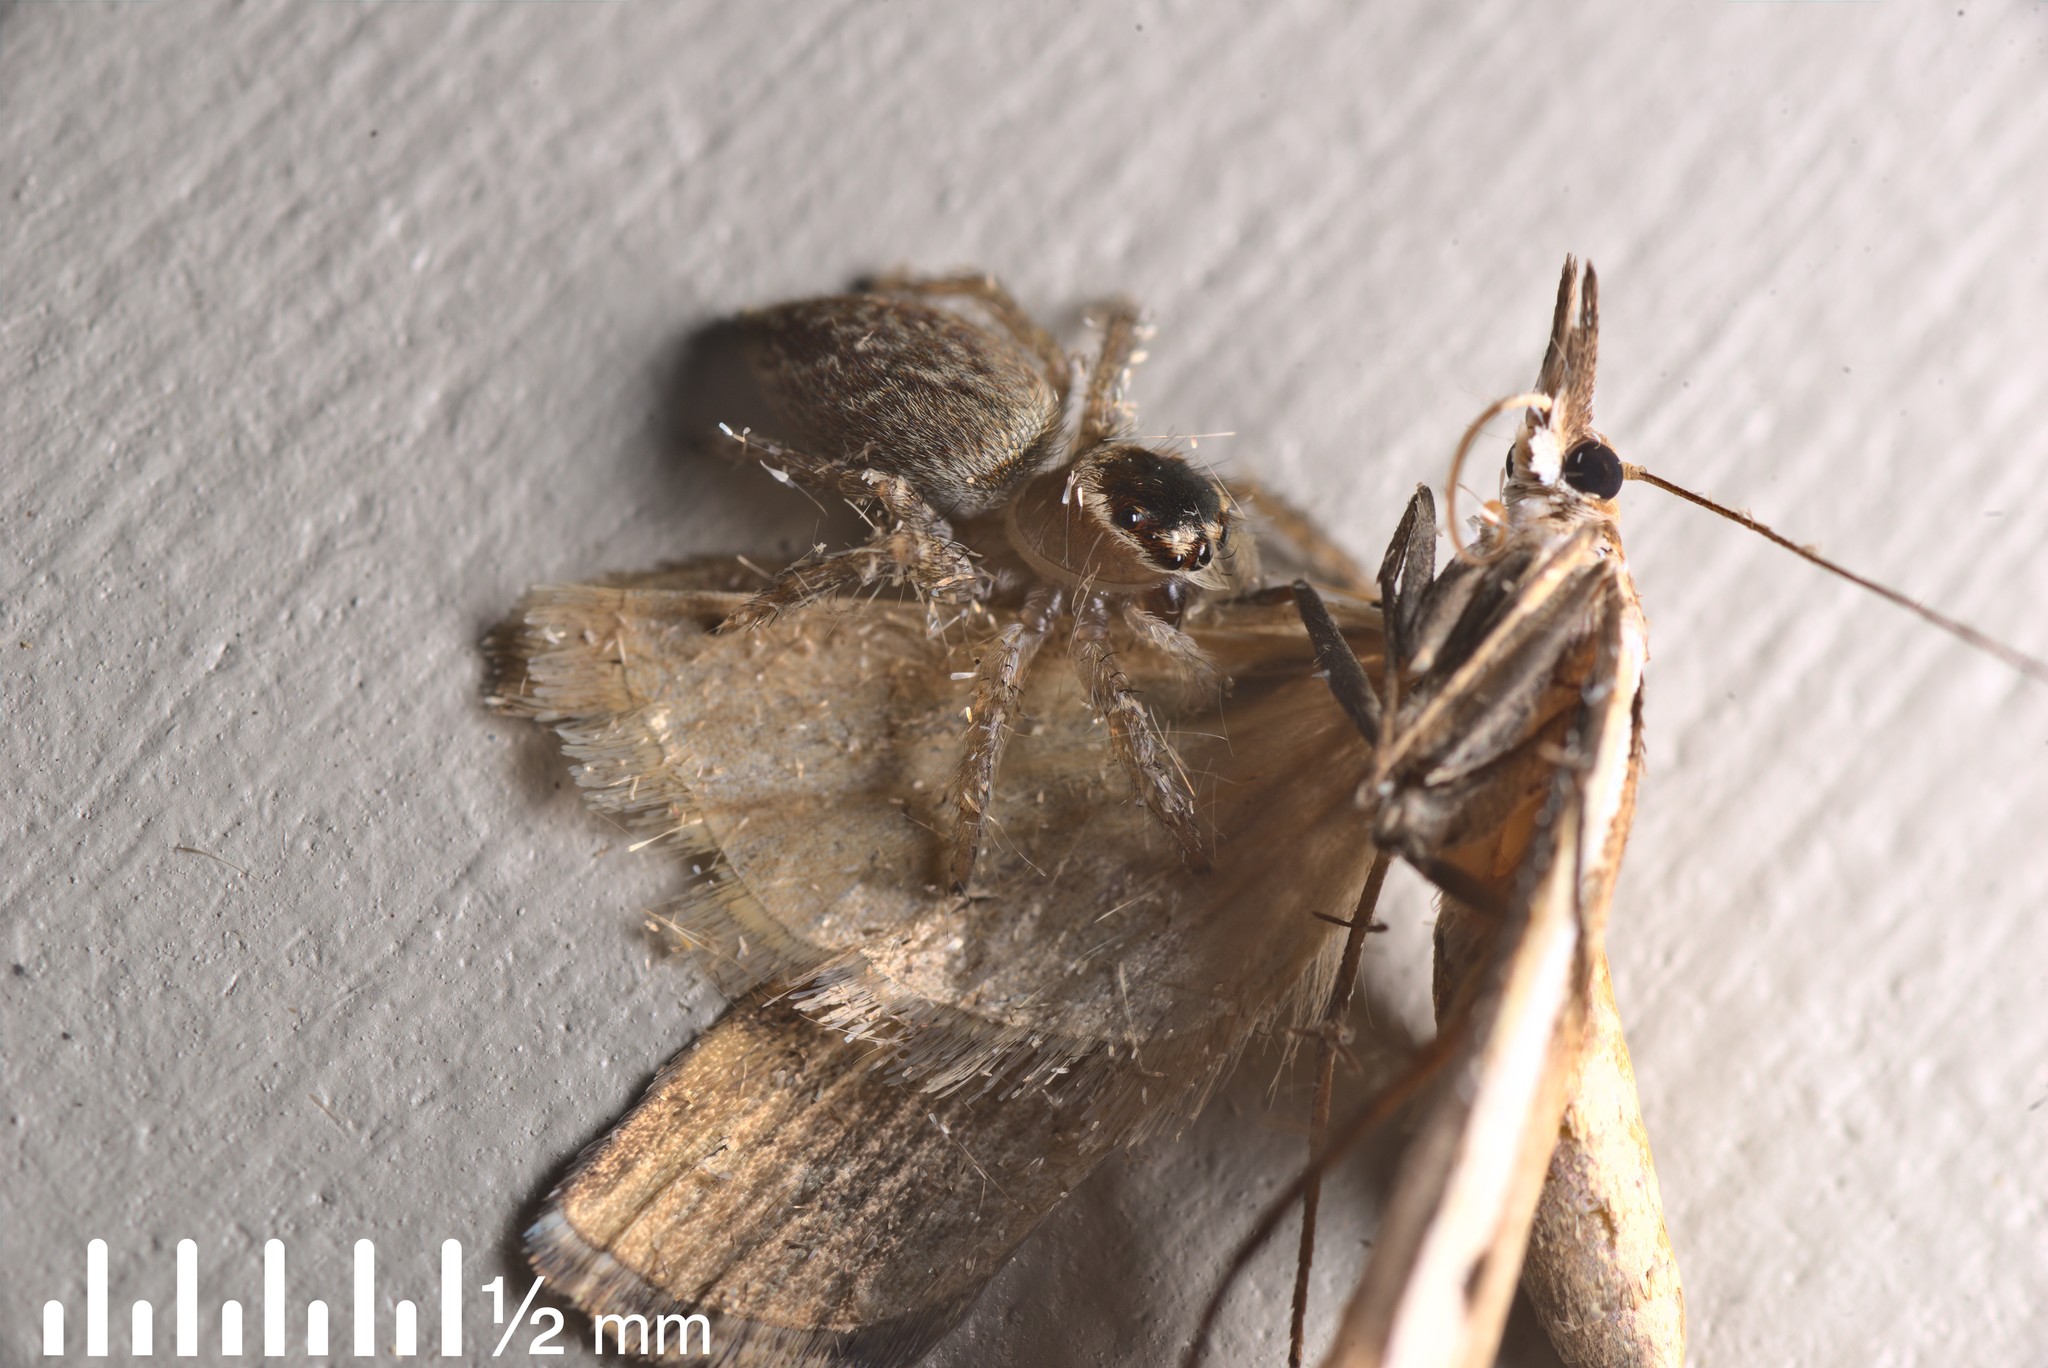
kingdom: Animalia
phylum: Arthropoda
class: Arachnida
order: Araneae
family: Salticidae
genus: Maratus
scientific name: Maratus griseus
